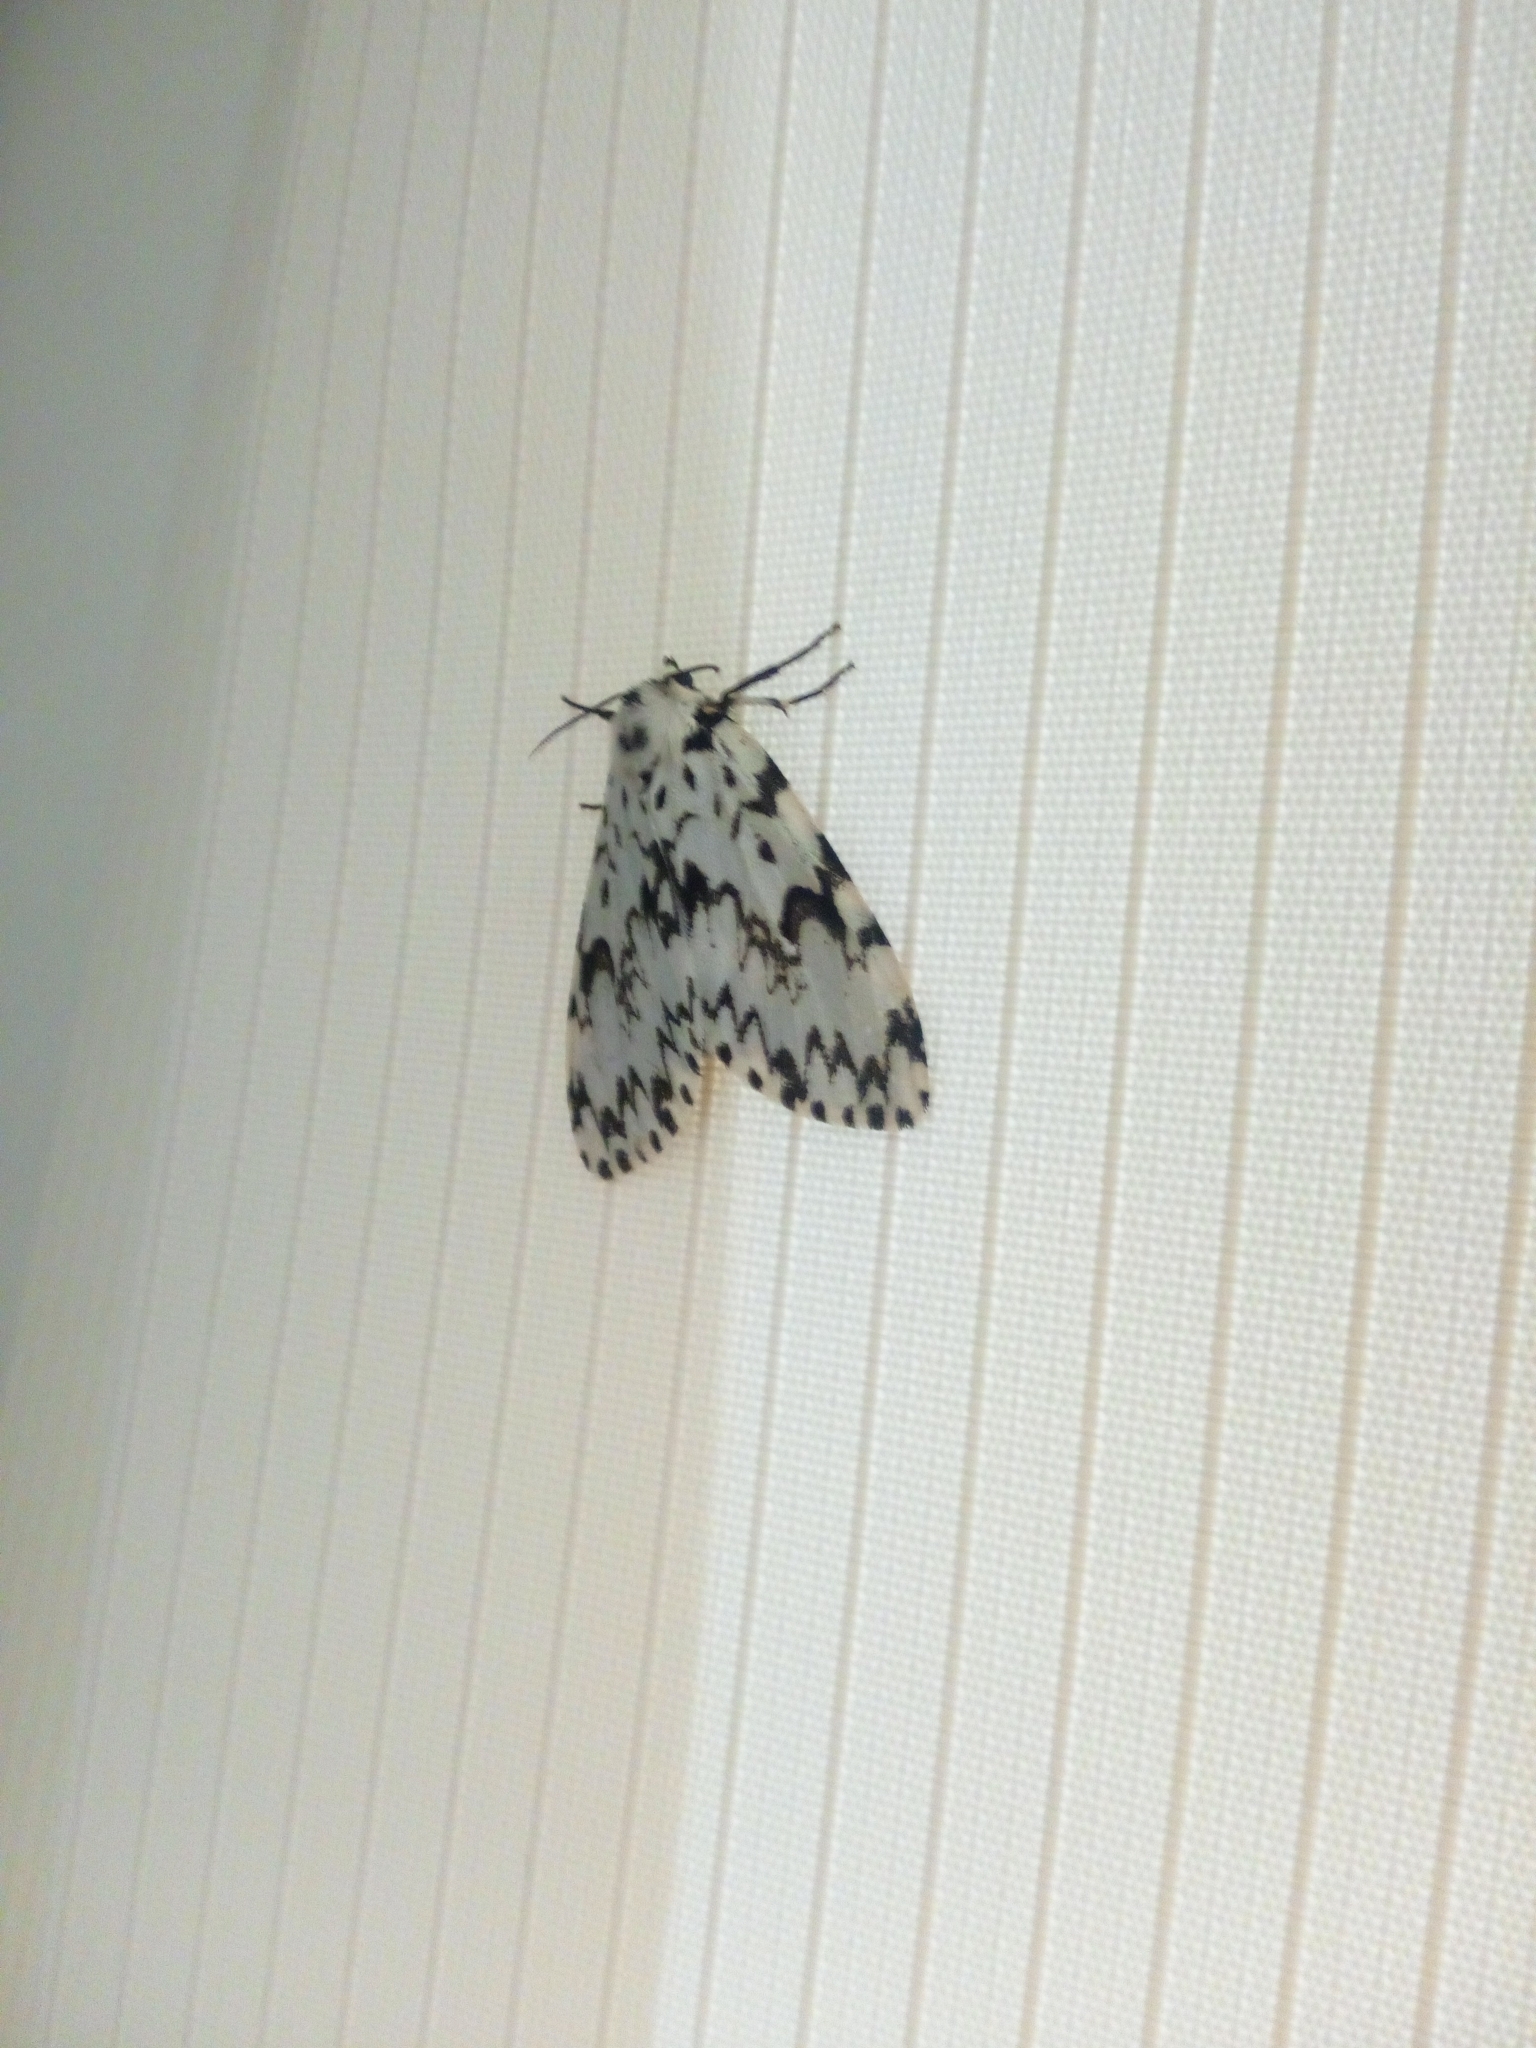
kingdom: Animalia
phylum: Arthropoda
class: Insecta
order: Lepidoptera
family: Erebidae
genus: Lymantria
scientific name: Lymantria monacha
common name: Black arches
